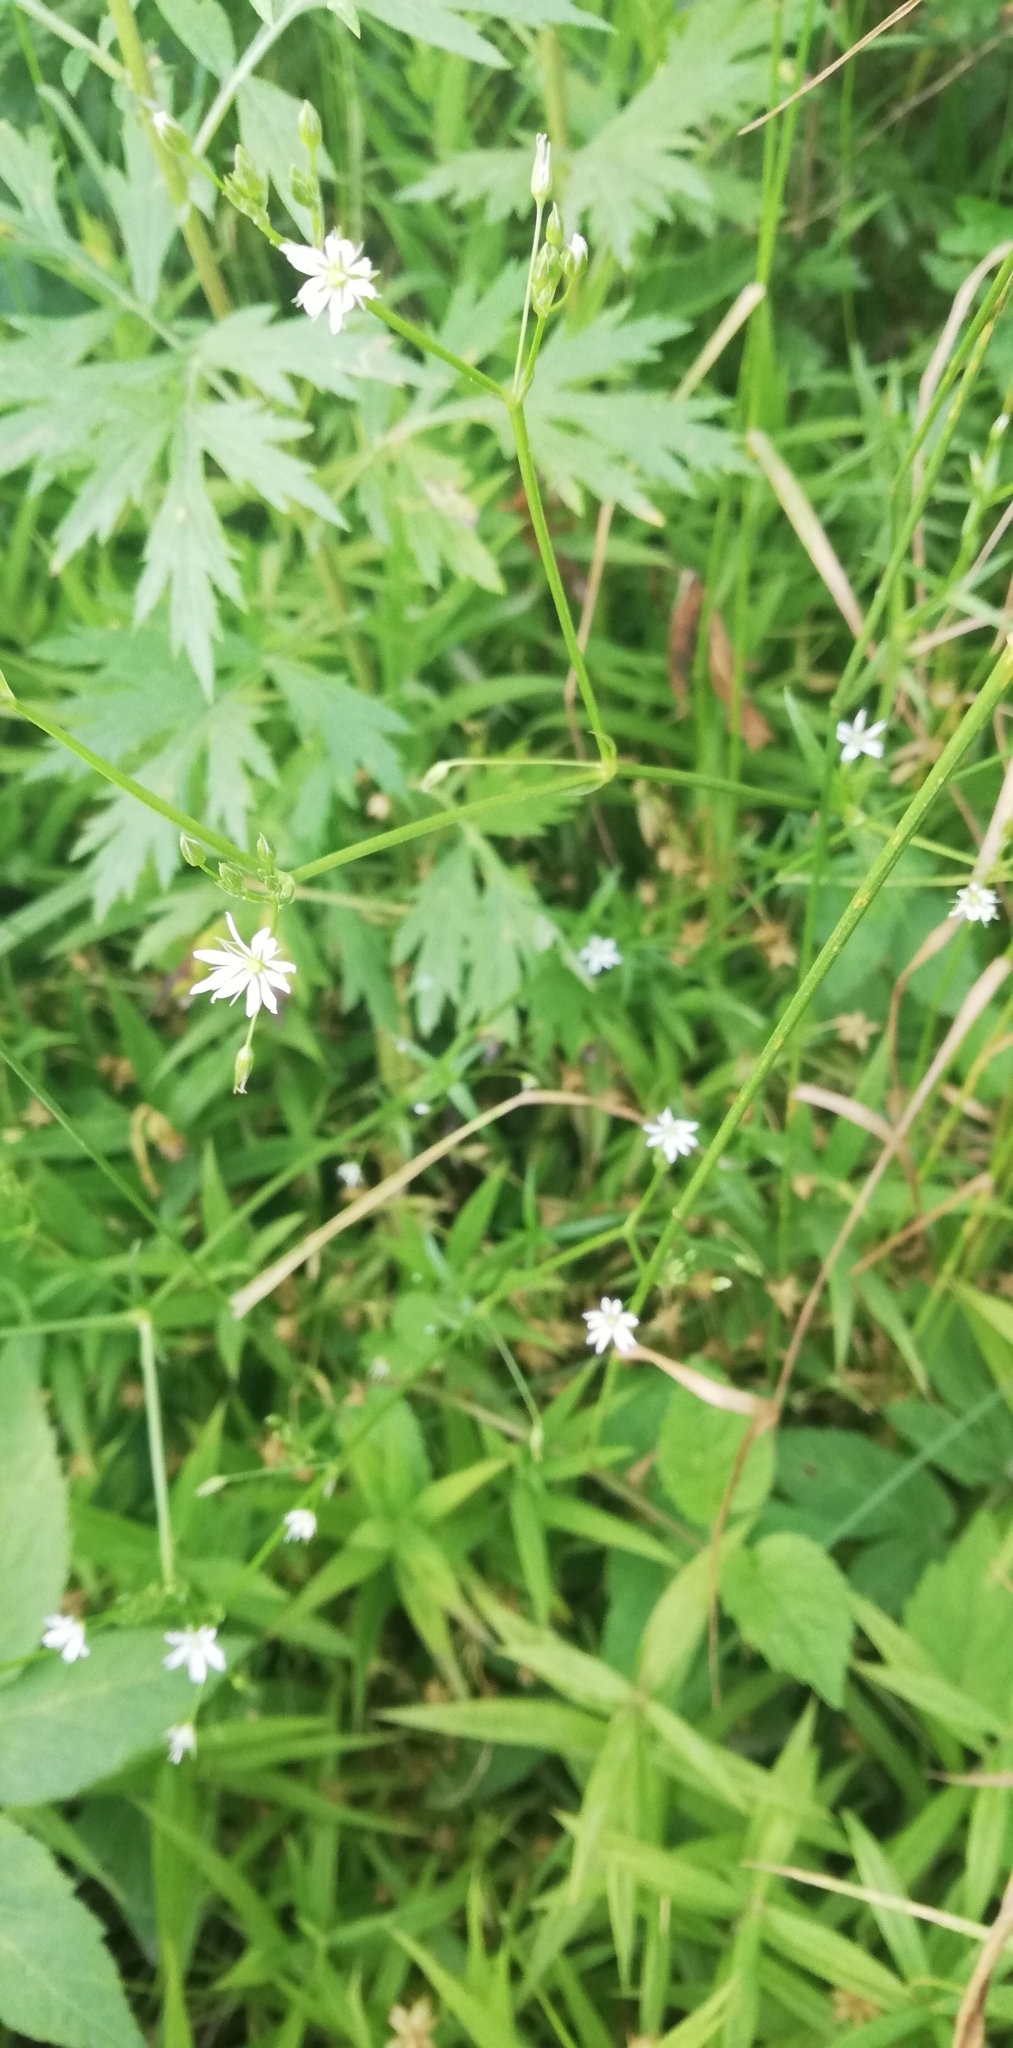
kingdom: Plantae
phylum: Tracheophyta
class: Magnoliopsida
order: Caryophyllales
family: Caryophyllaceae
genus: Stellaria
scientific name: Stellaria graminea
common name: Grass-like starwort
